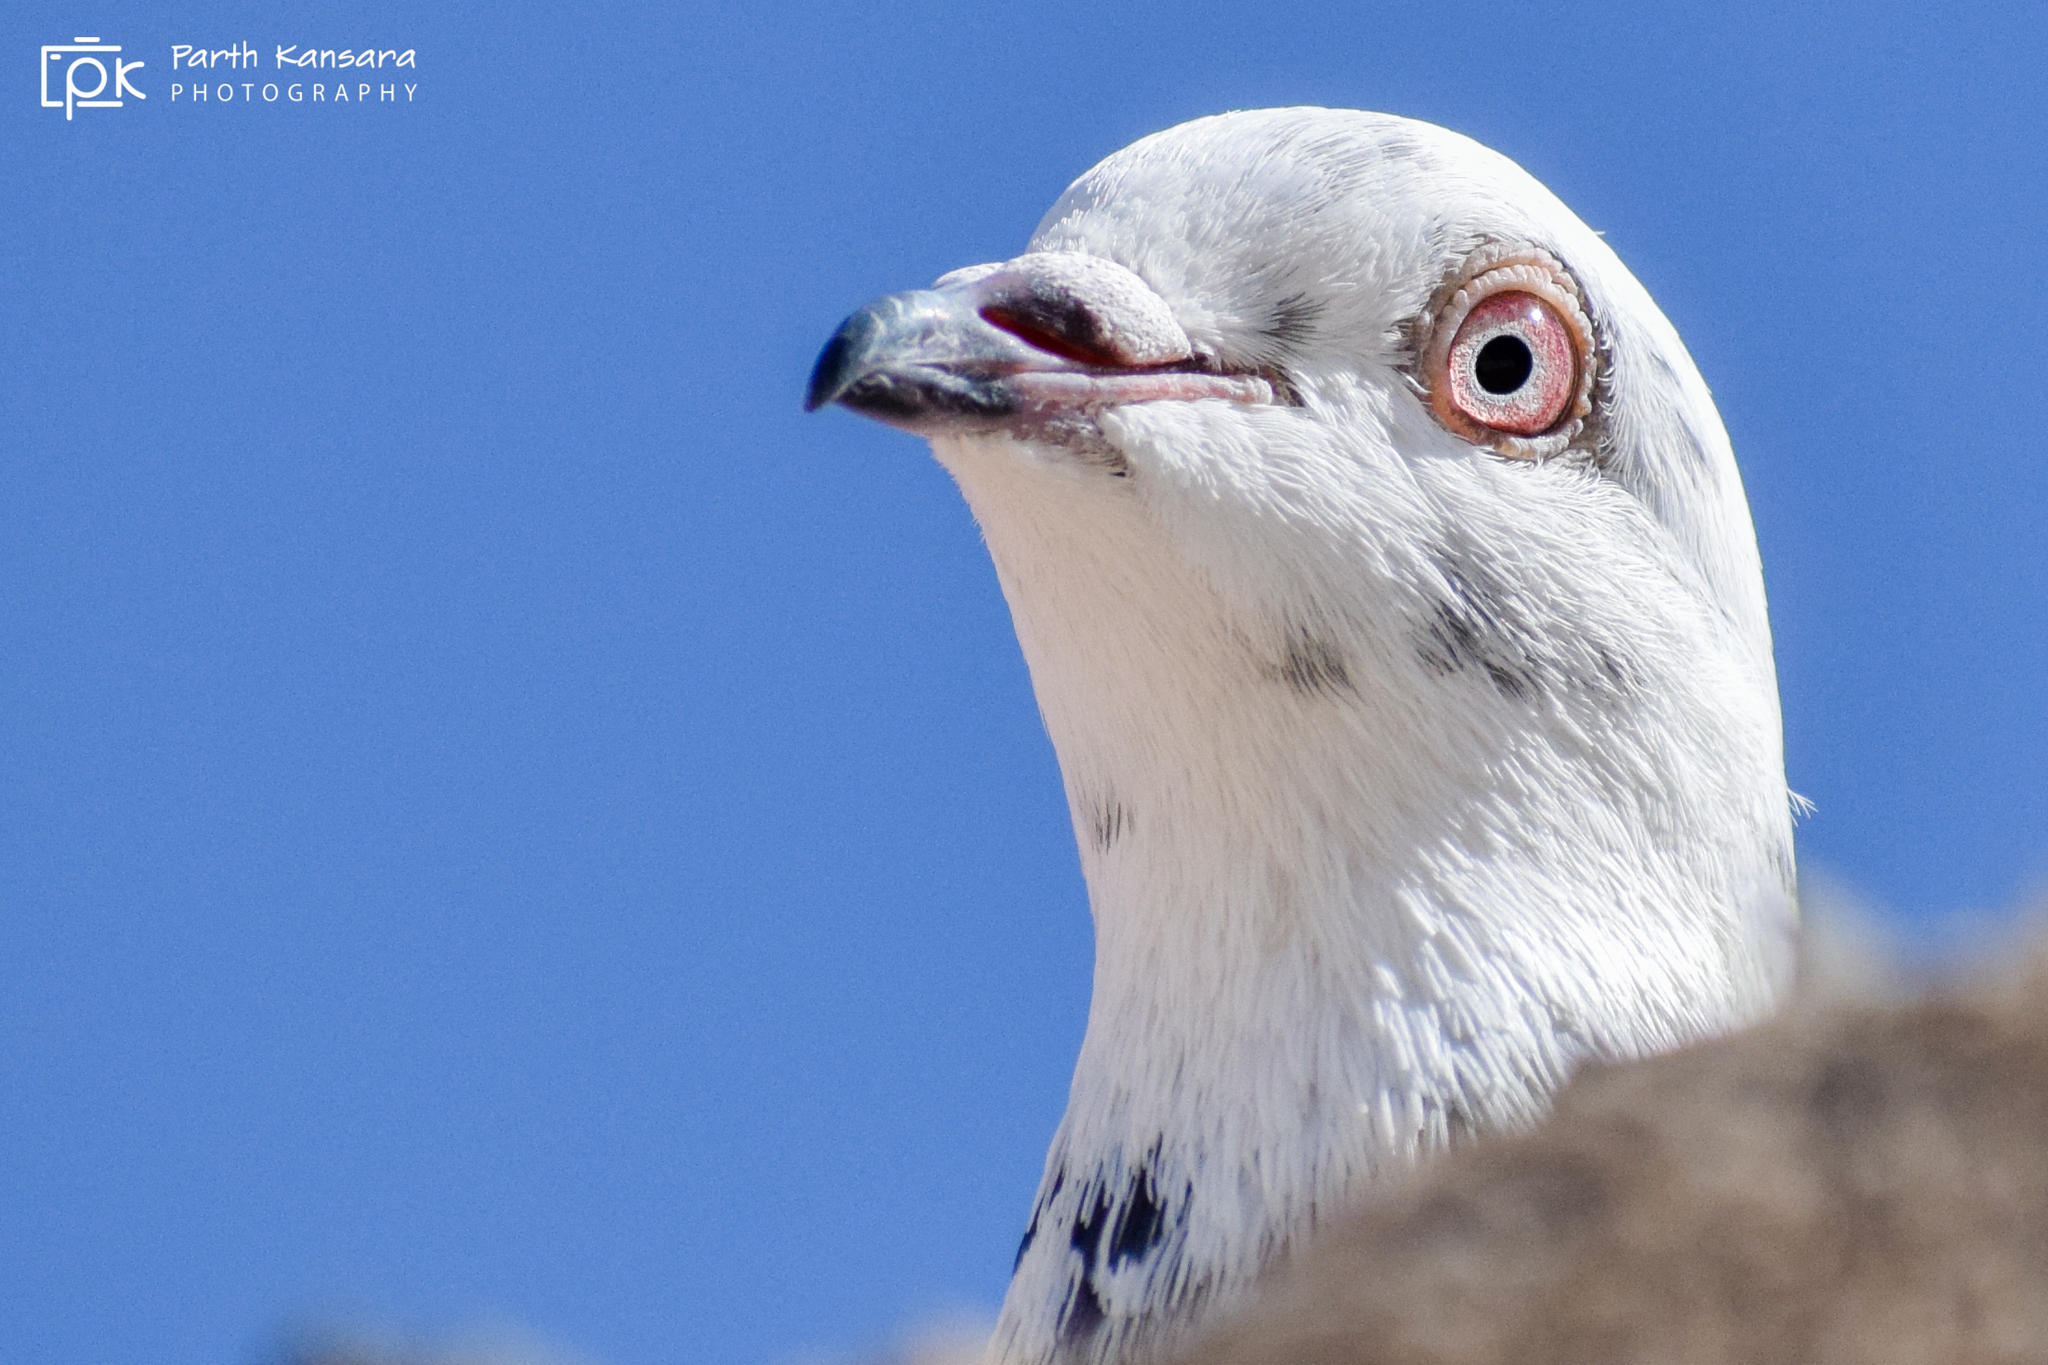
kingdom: Animalia
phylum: Chordata
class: Aves
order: Columbiformes
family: Columbidae
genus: Columba
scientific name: Columba livia
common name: Rock pigeon
